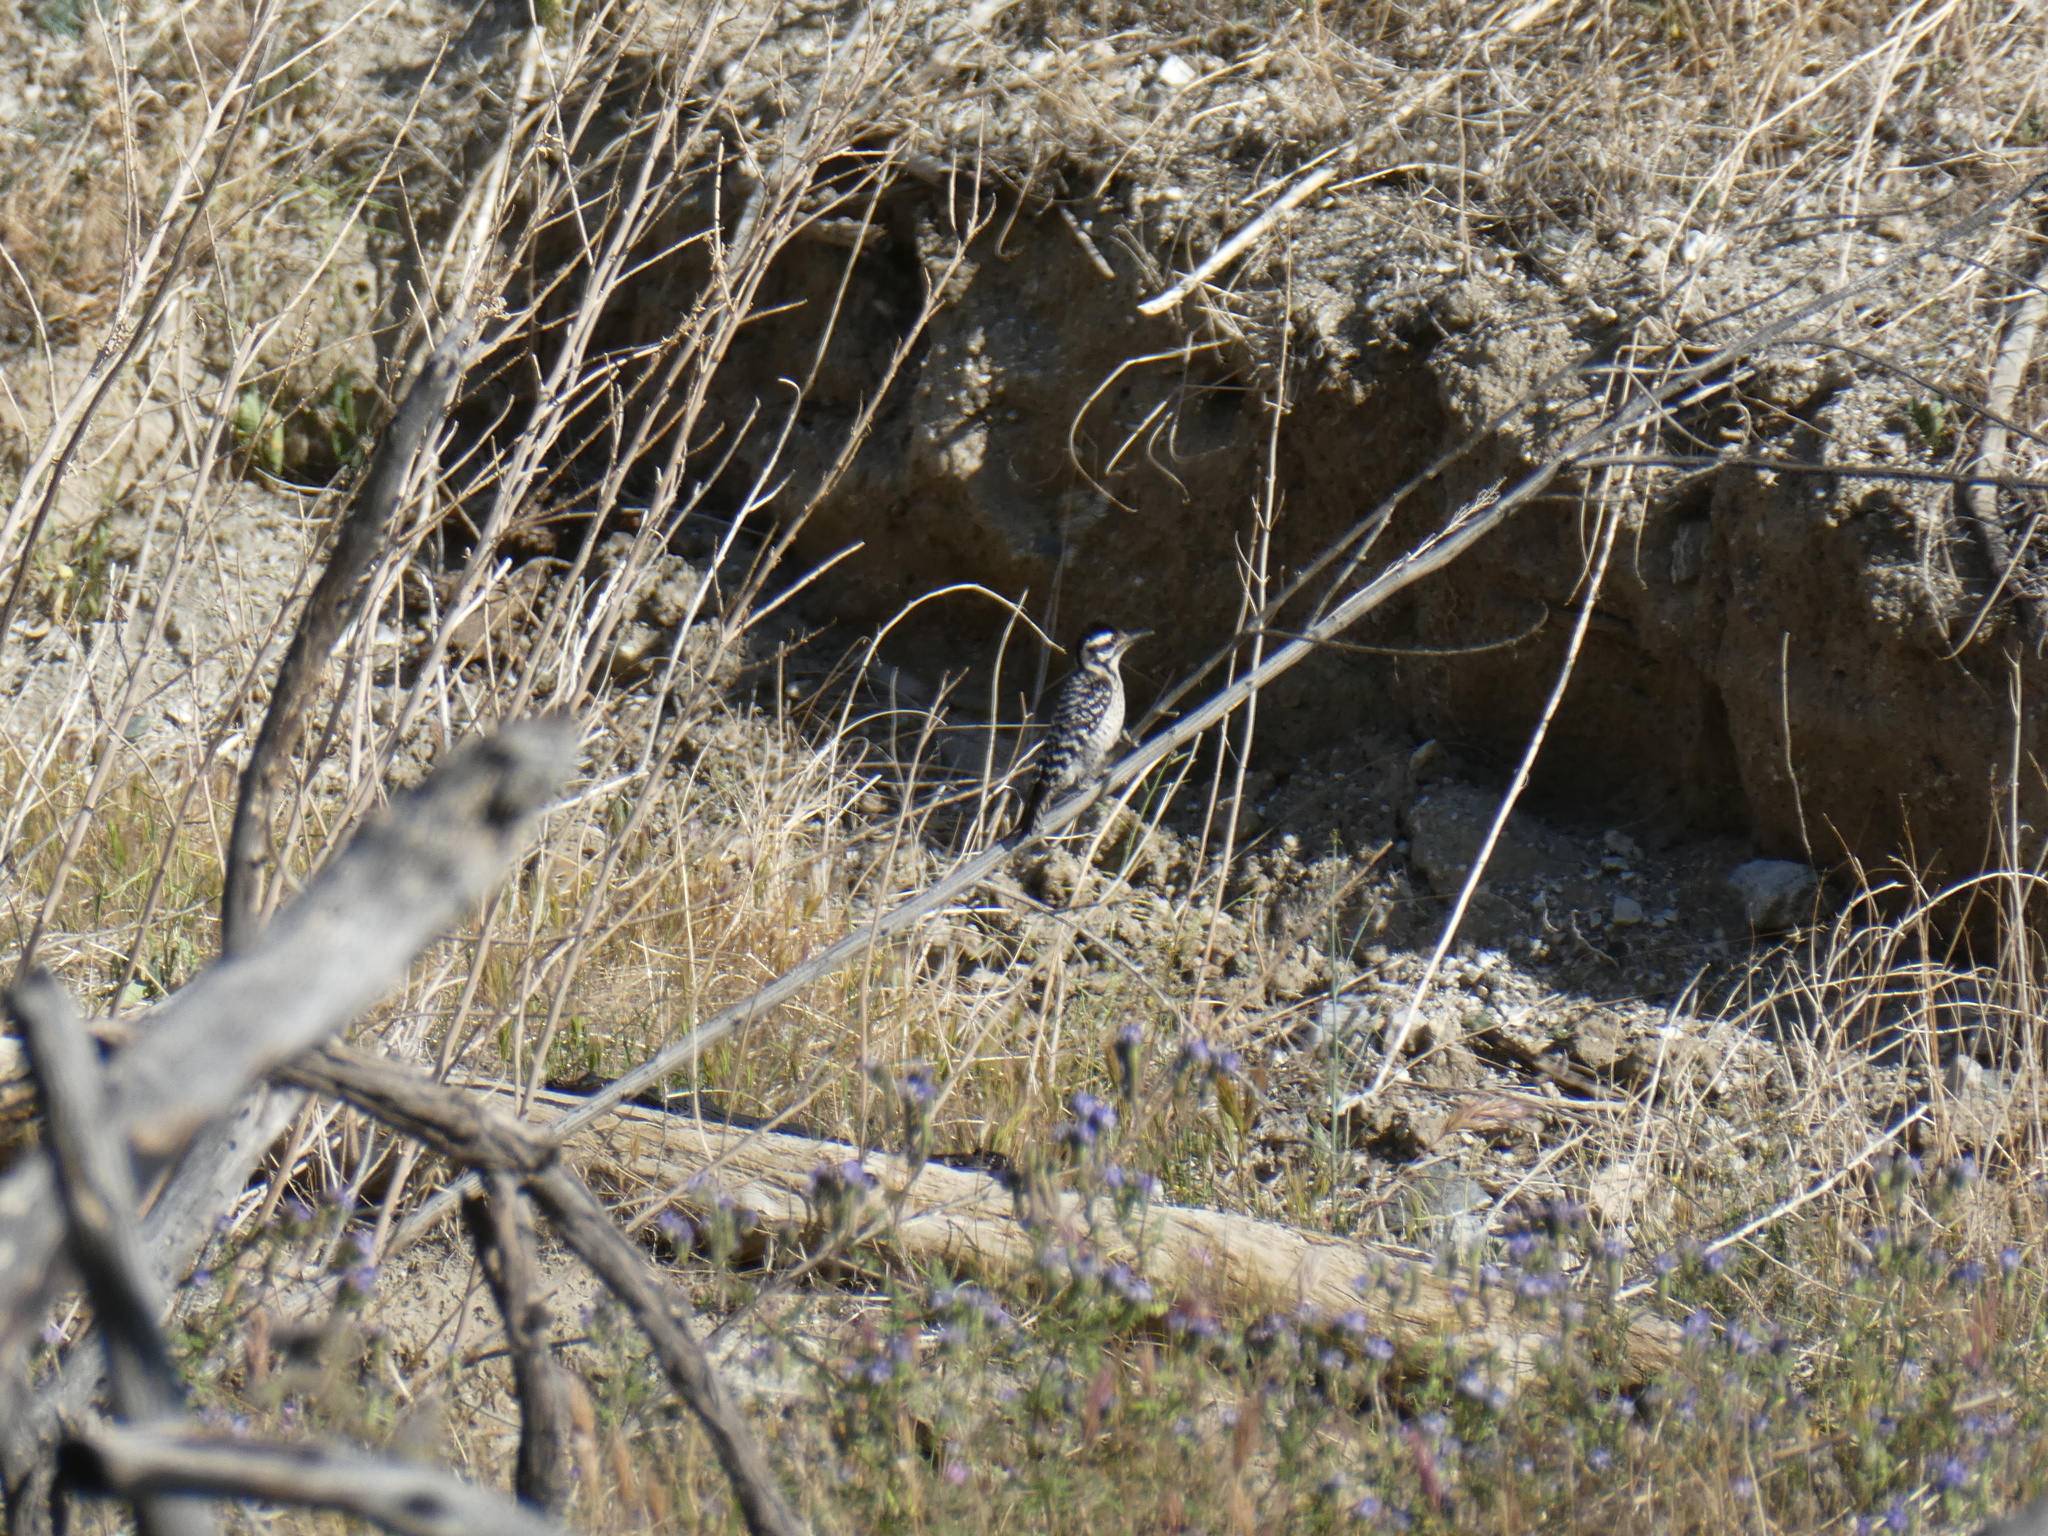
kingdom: Animalia
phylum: Chordata
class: Aves
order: Piciformes
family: Picidae
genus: Dryobates
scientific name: Dryobates scalaris
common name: Ladder-backed woodpecker
